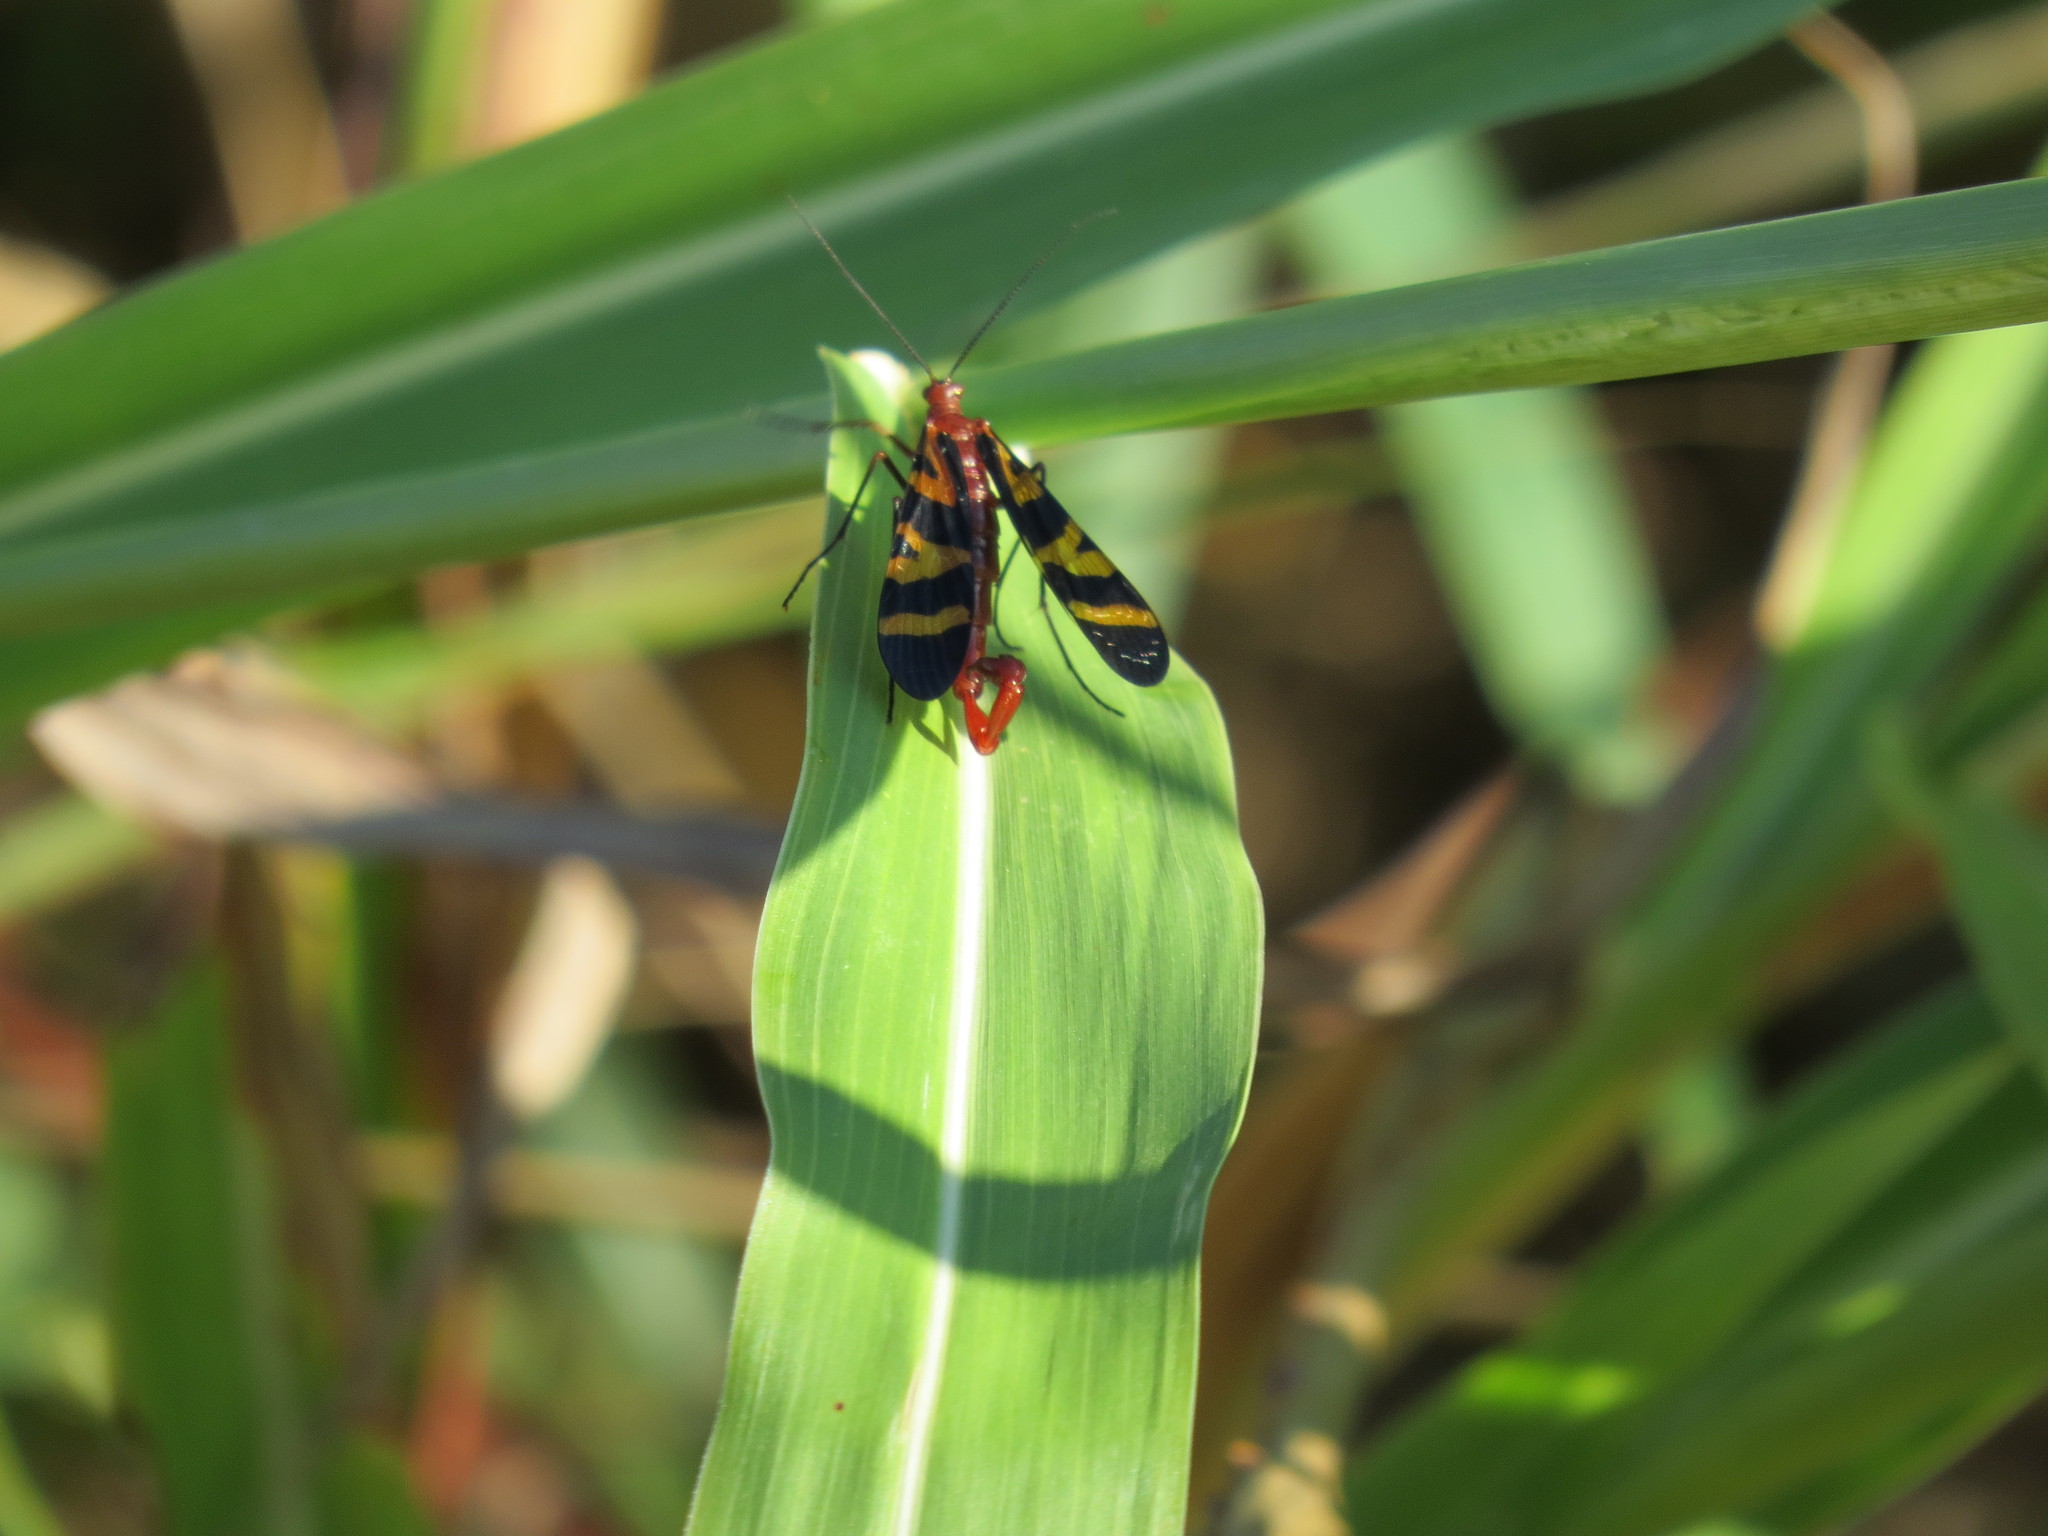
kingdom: Animalia
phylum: Arthropoda
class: Insecta
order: Mecoptera
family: Panorpidae
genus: Panorpa
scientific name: Panorpa nuptialis
